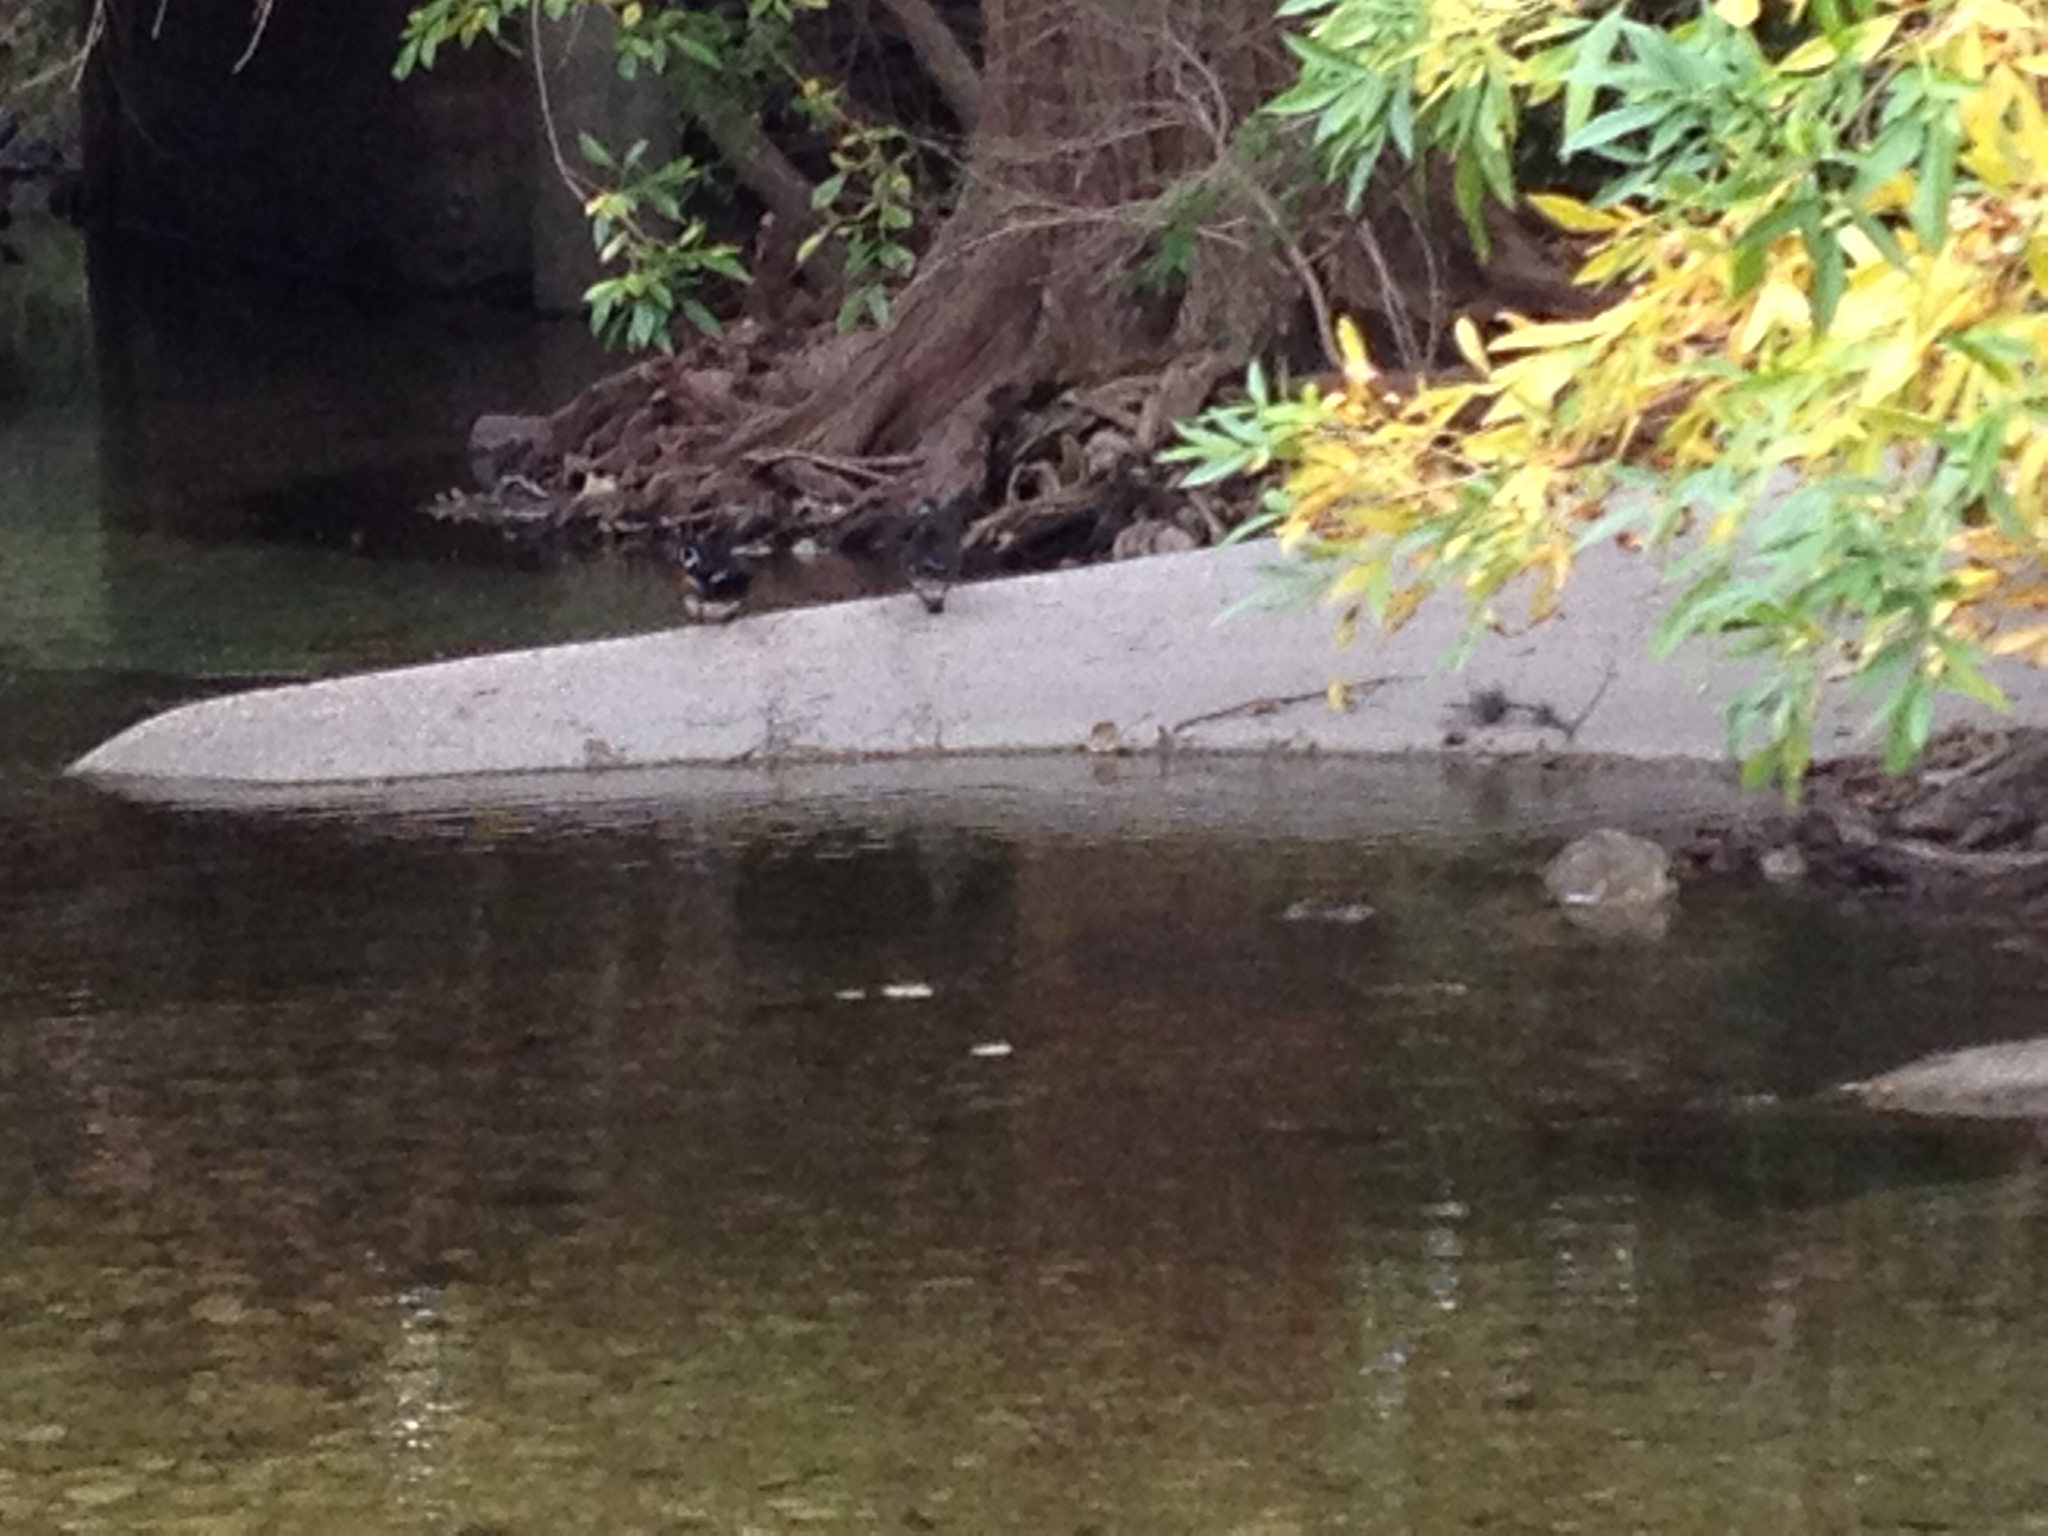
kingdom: Animalia
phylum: Chordata
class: Aves
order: Anseriformes
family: Anatidae
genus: Aix
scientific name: Aix sponsa
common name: Wood duck
